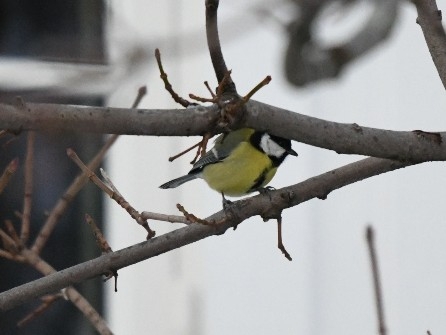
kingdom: Animalia
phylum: Chordata
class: Aves
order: Passeriformes
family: Paridae
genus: Parus
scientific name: Parus major
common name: Great tit
